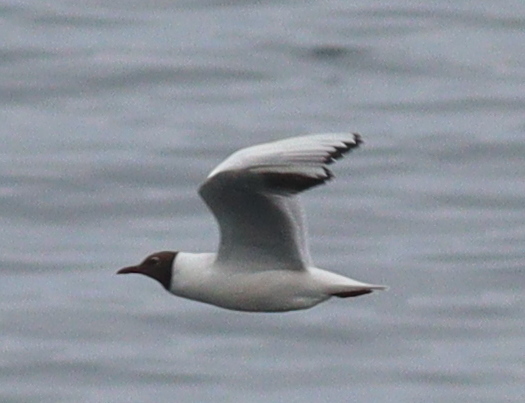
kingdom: Animalia
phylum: Chordata
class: Aves
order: Charadriiformes
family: Laridae
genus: Chroicocephalus
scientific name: Chroicocephalus ridibundus
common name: Black-headed gull
